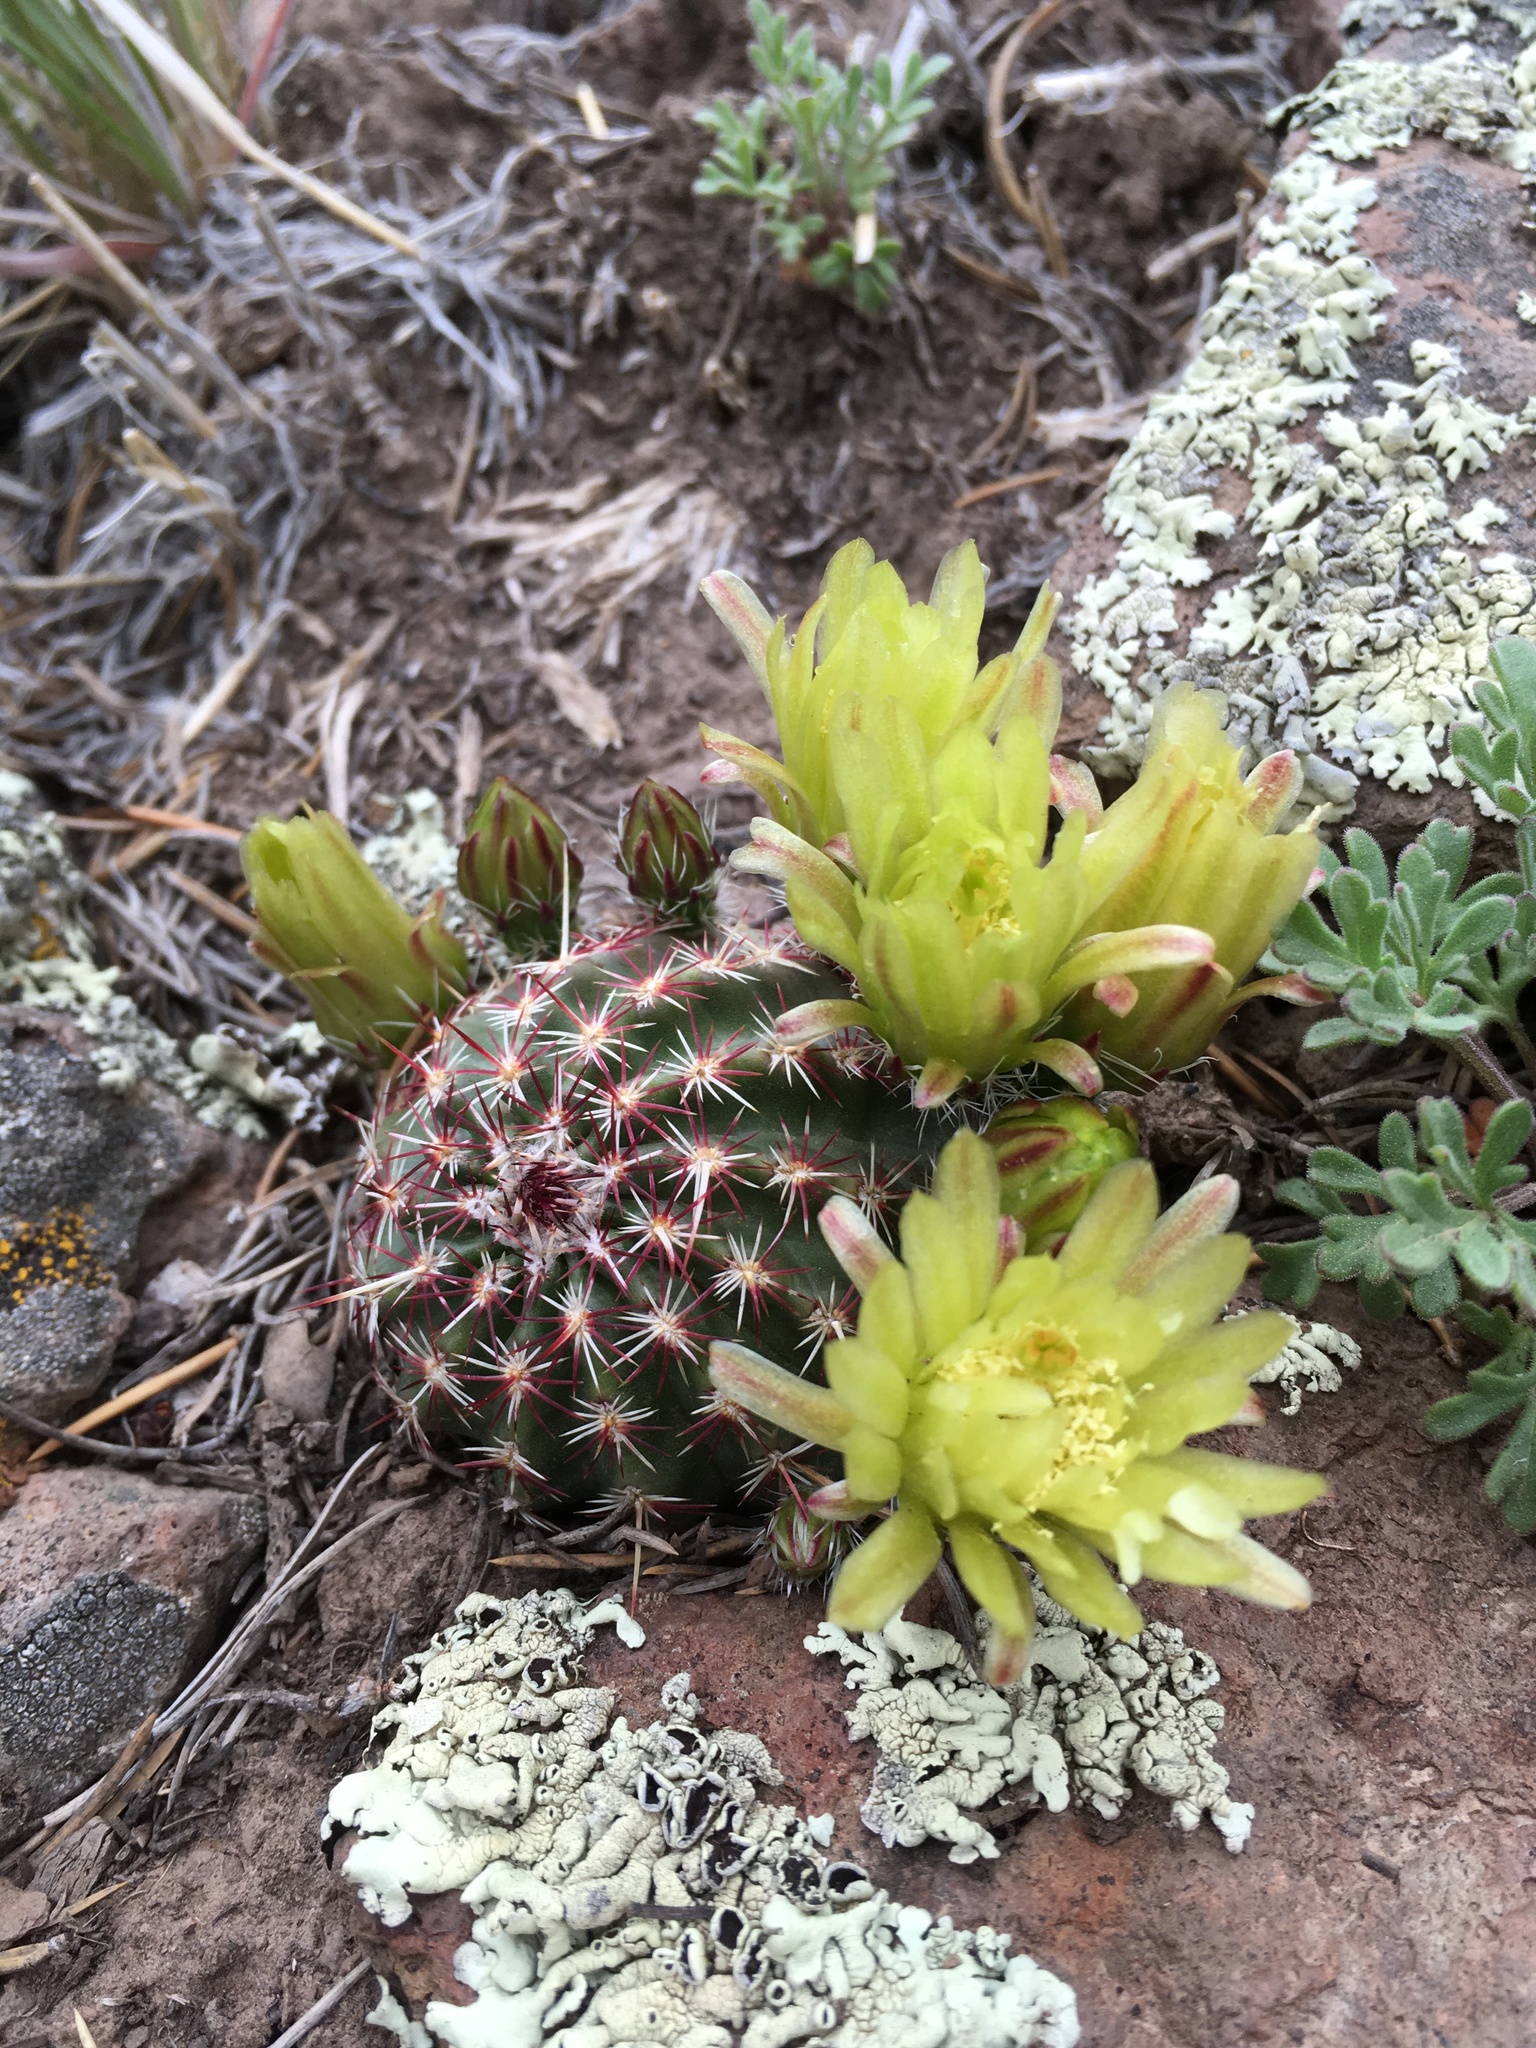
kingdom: Plantae
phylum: Tracheophyta
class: Magnoliopsida
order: Caryophyllales
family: Cactaceae
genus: Echinocereus
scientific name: Echinocereus viridiflorus
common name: Nylon hedgehog cactus
